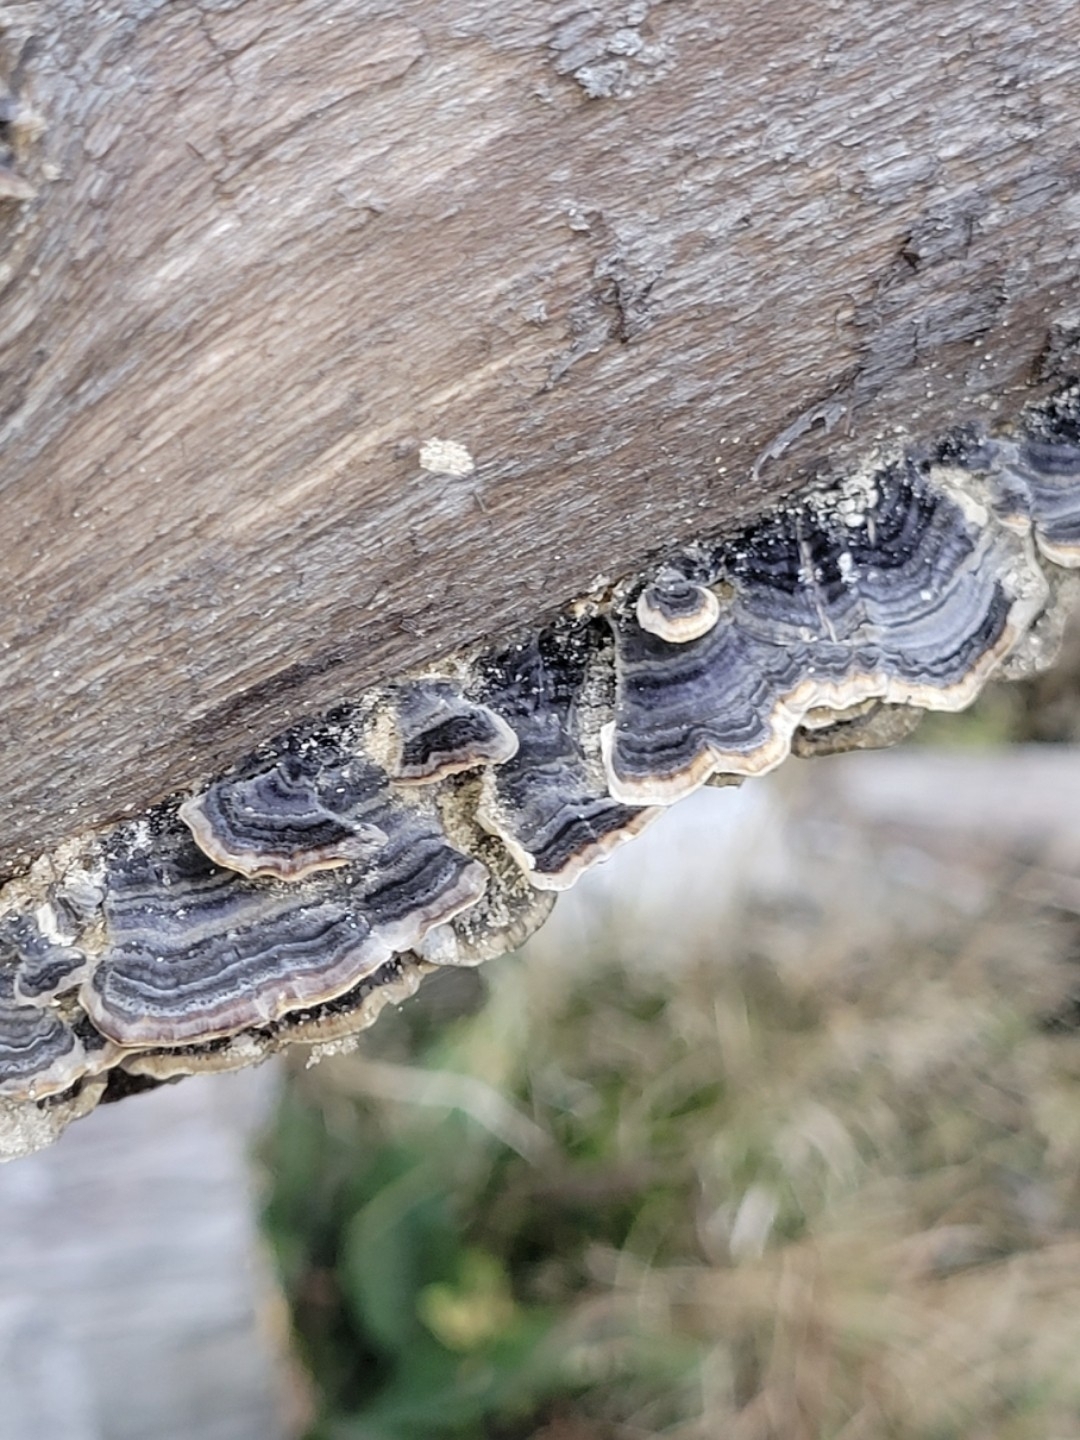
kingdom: Fungi
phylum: Basidiomycota
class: Agaricomycetes
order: Polyporales
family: Polyporaceae
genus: Trametes
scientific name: Trametes versicolor
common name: Turkeytail
